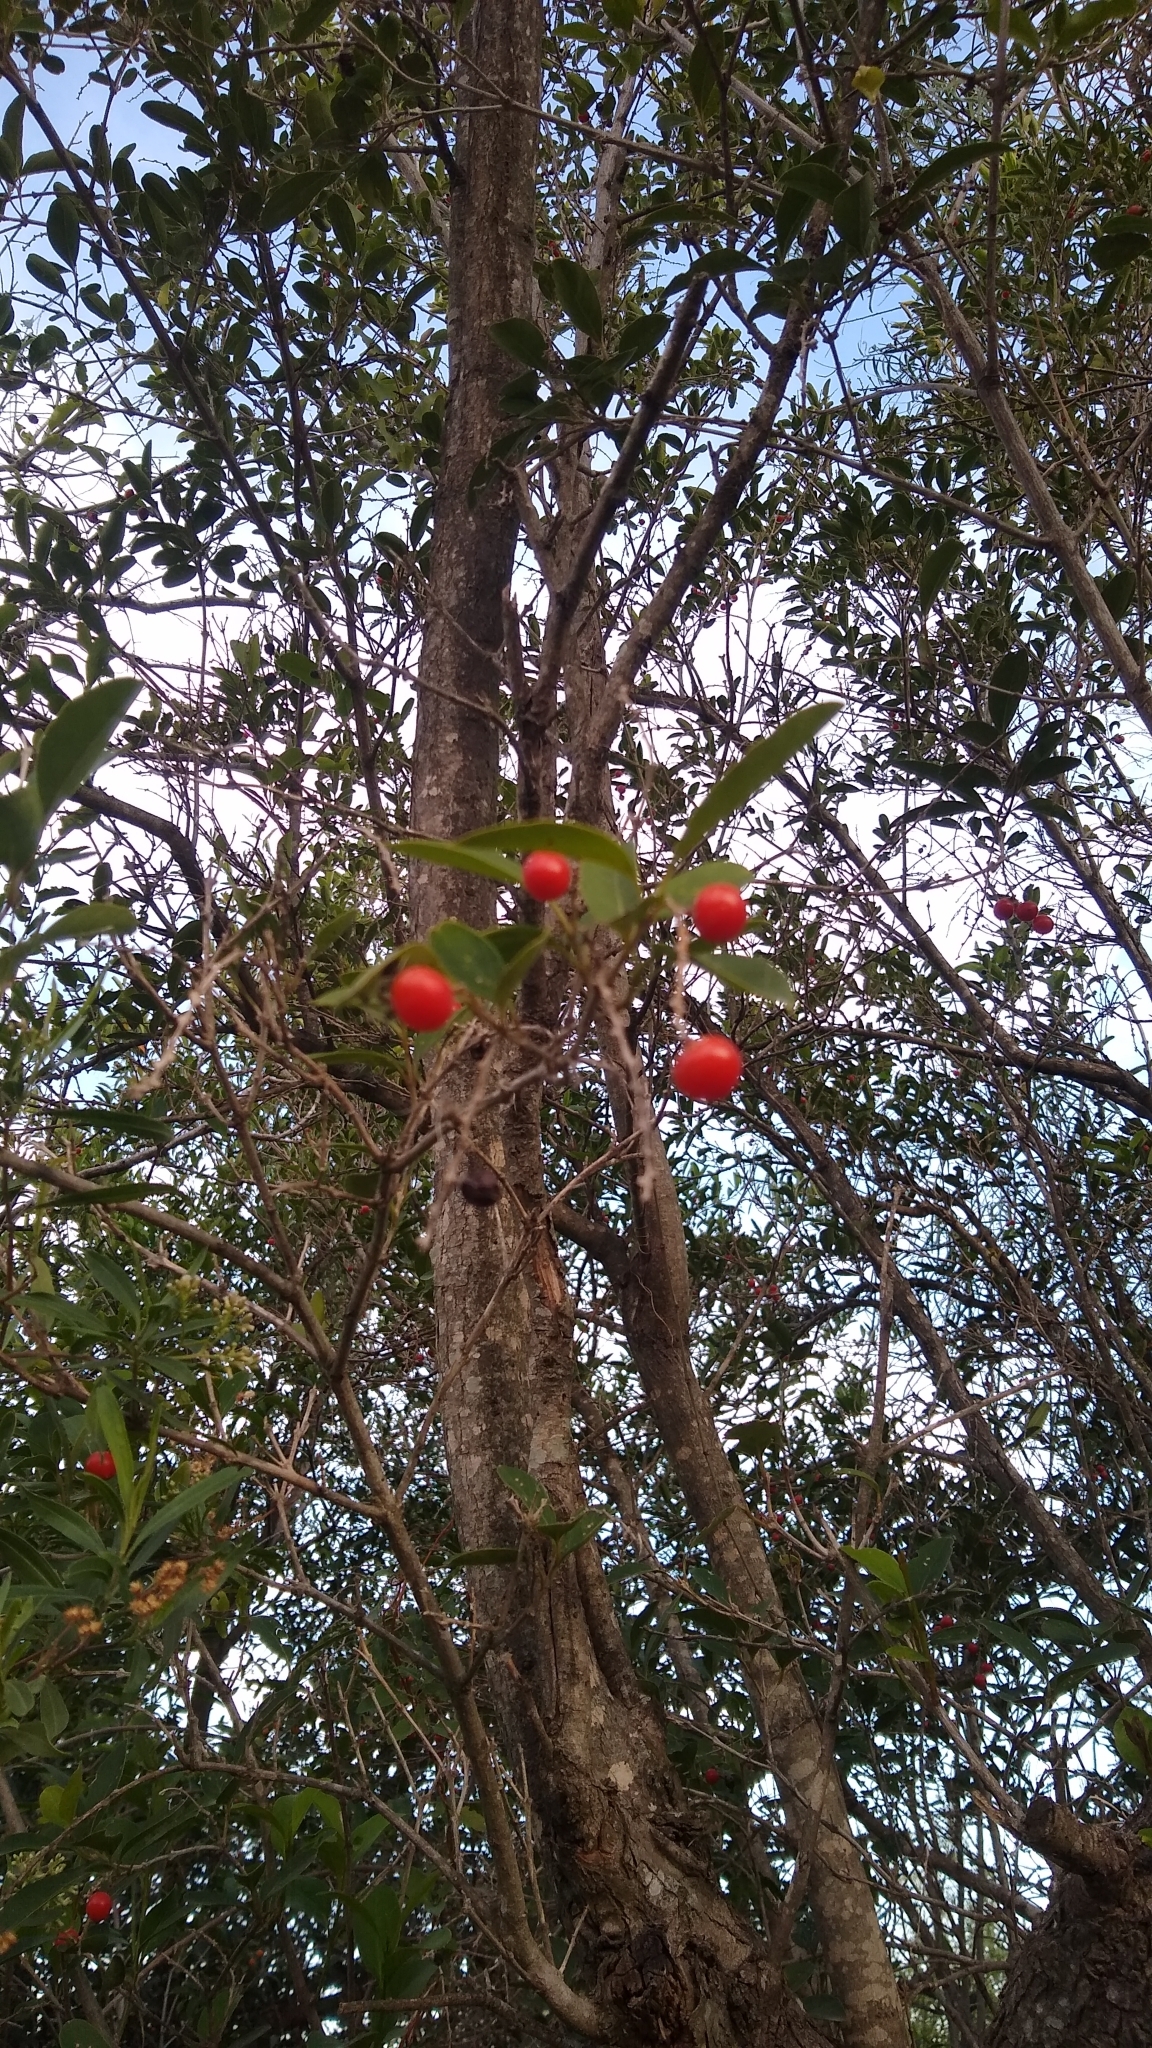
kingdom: Plantae
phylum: Tracheophyta
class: Magnoliopsida
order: Lamiales
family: Verbenaceae
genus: Citharexylum
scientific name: Citharexylum montevidense
